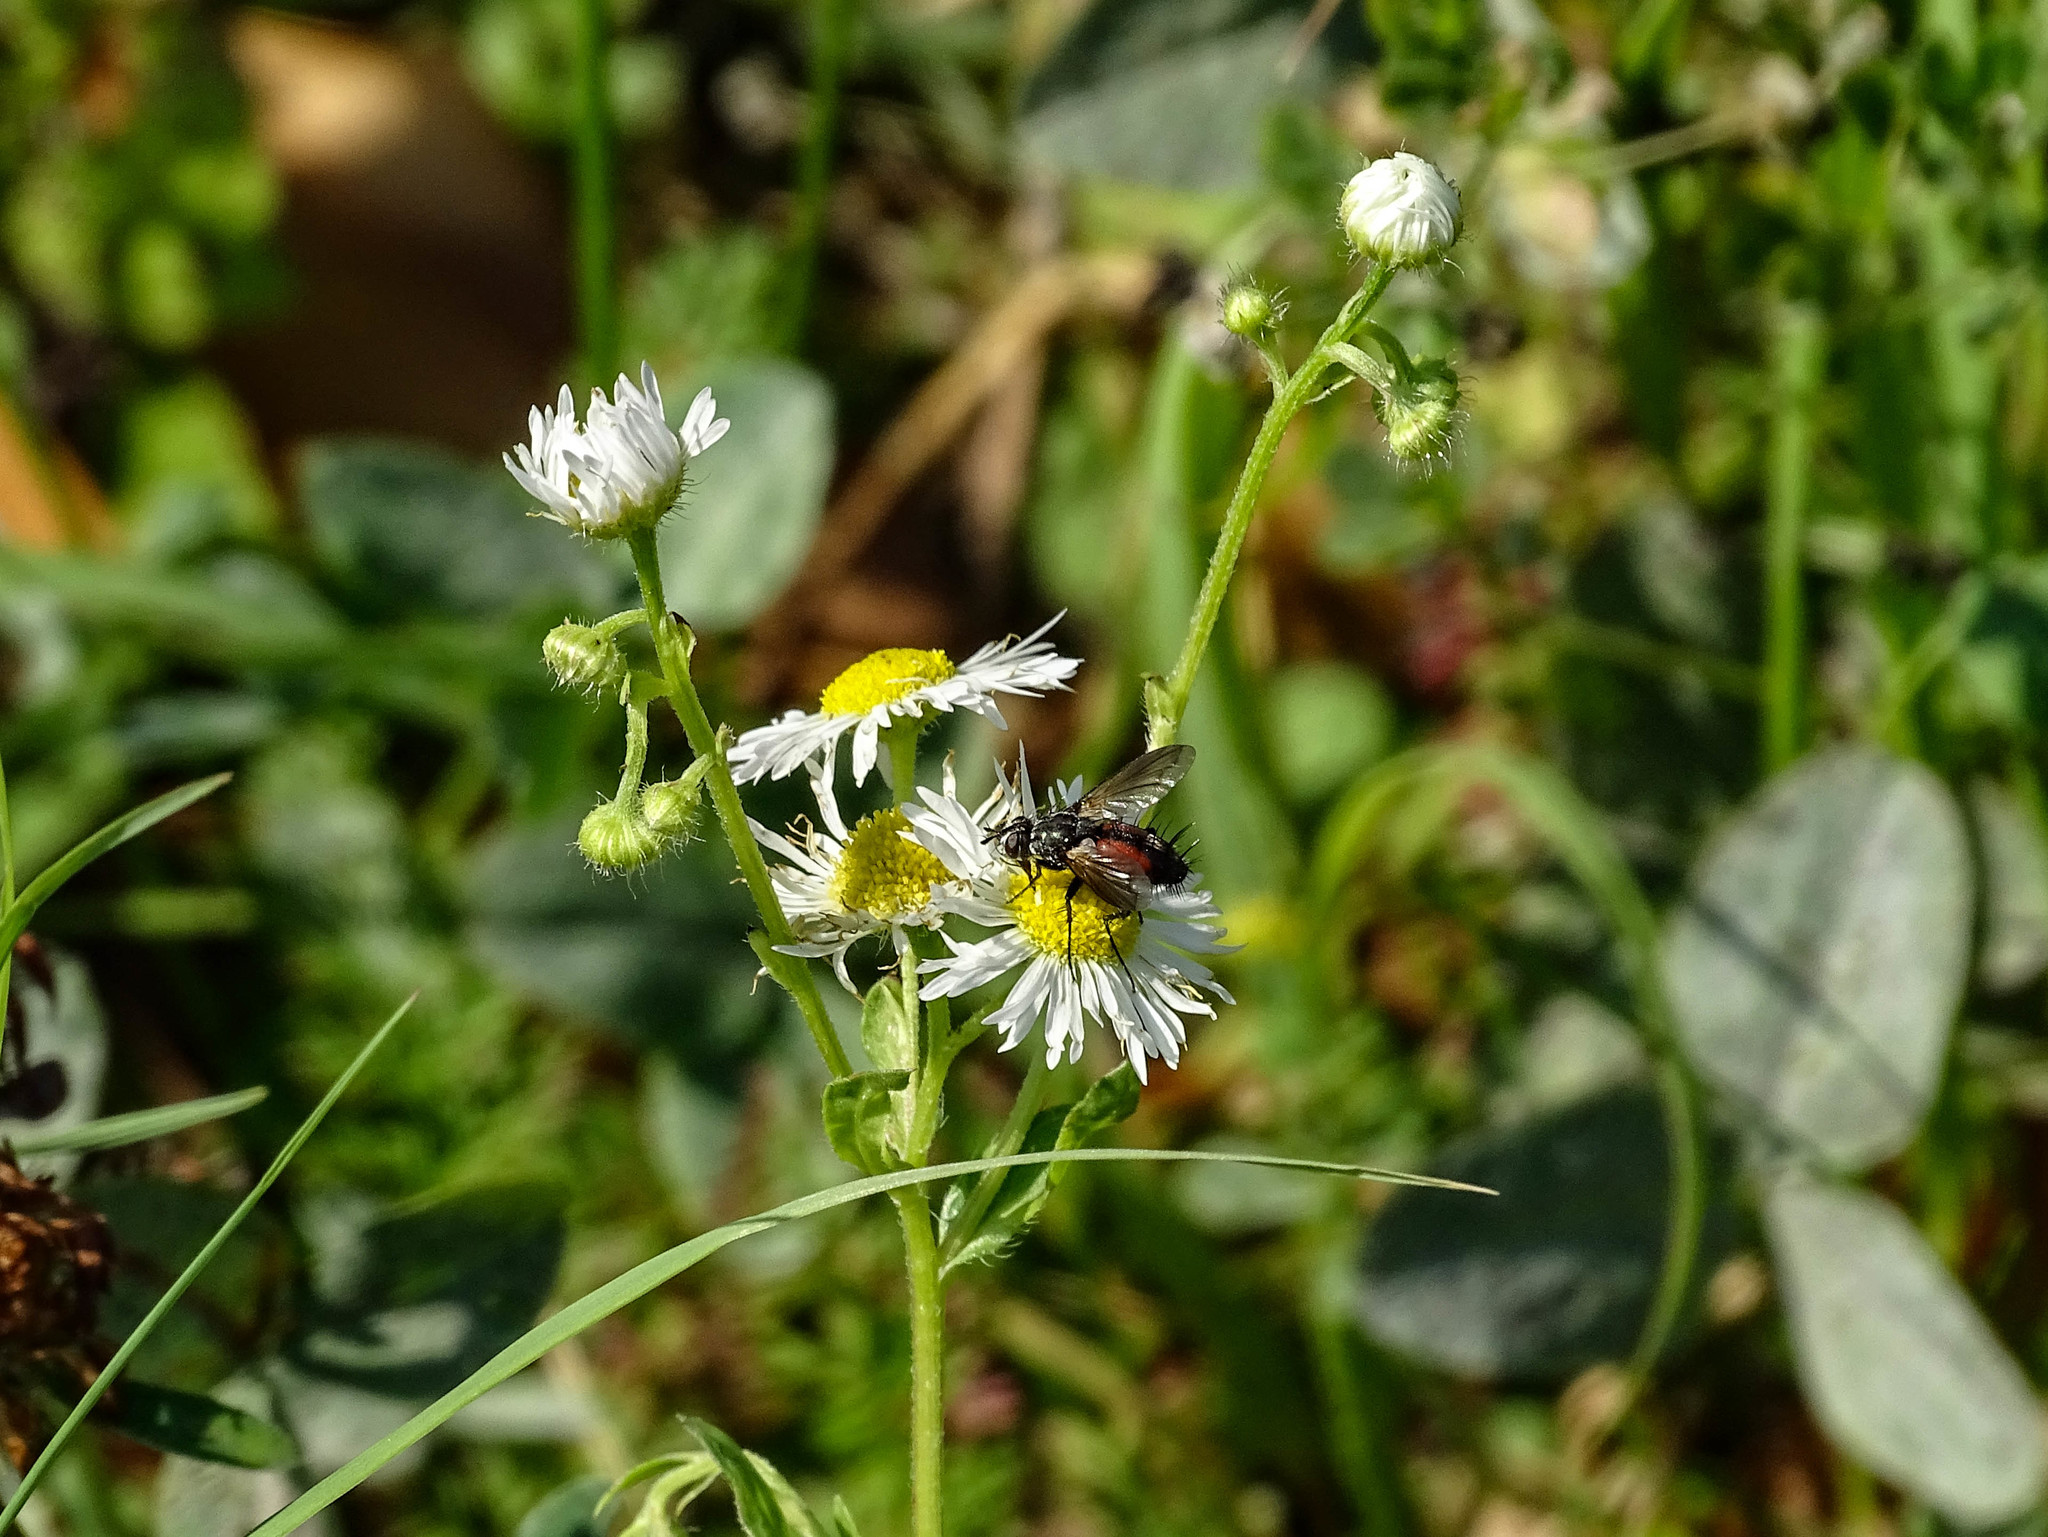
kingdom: Animalia
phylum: Arthropoda
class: Insecta
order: Diptera
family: Tachinidae
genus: Eriothrix
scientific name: Eriothrix rufomaculatus
